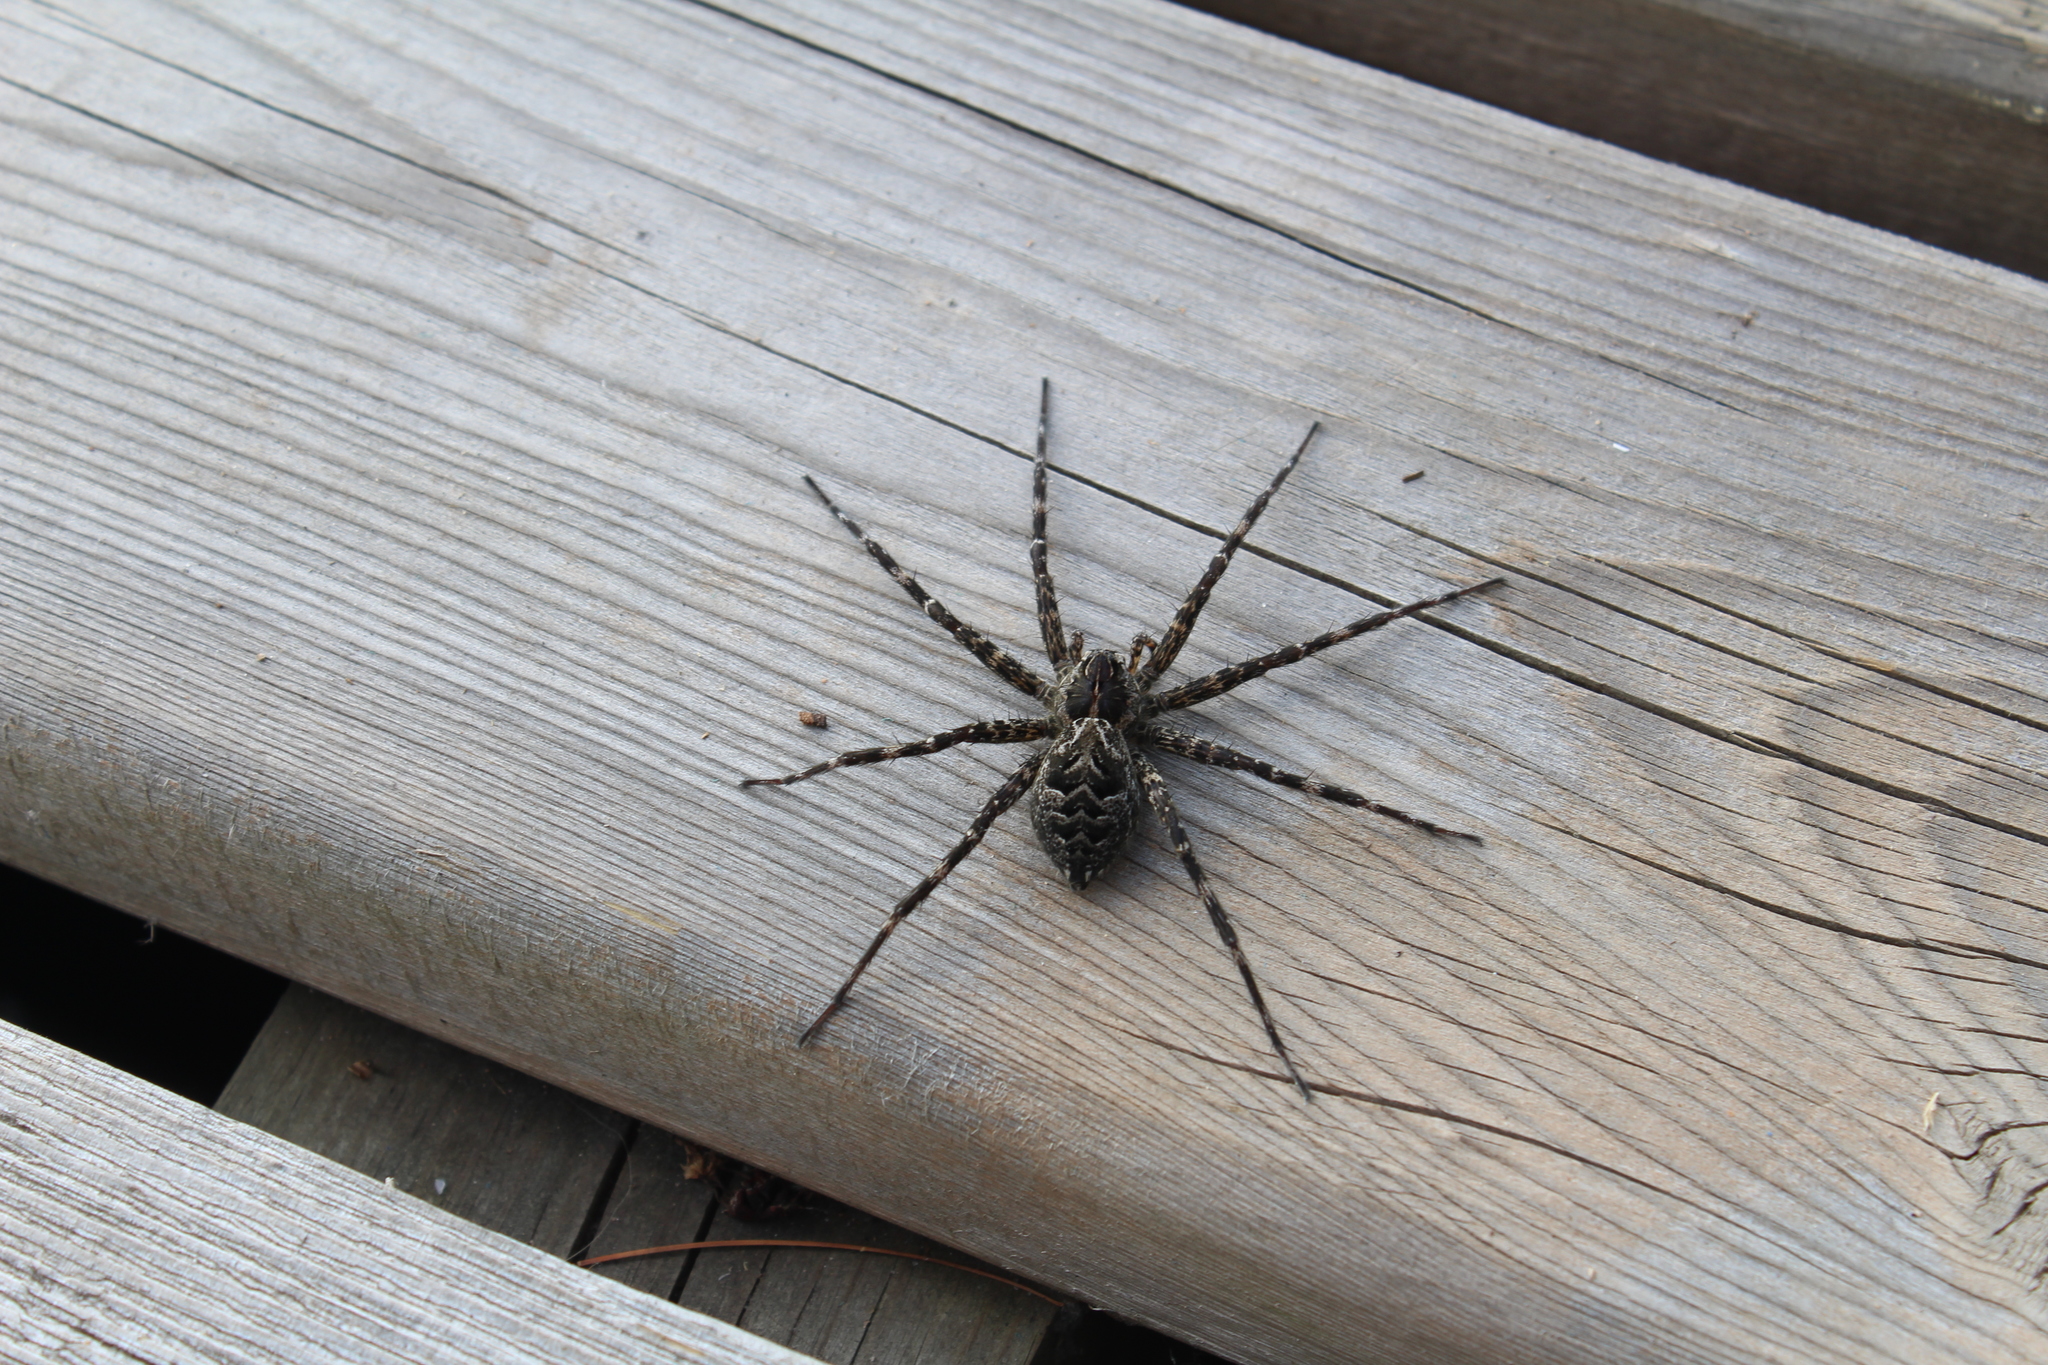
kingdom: Animalia
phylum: Arthropoda
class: Arachnida
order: Araneae
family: Pisauridae
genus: Dolomedes
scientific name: Dolomedes scriptus
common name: Striped fishing spider
